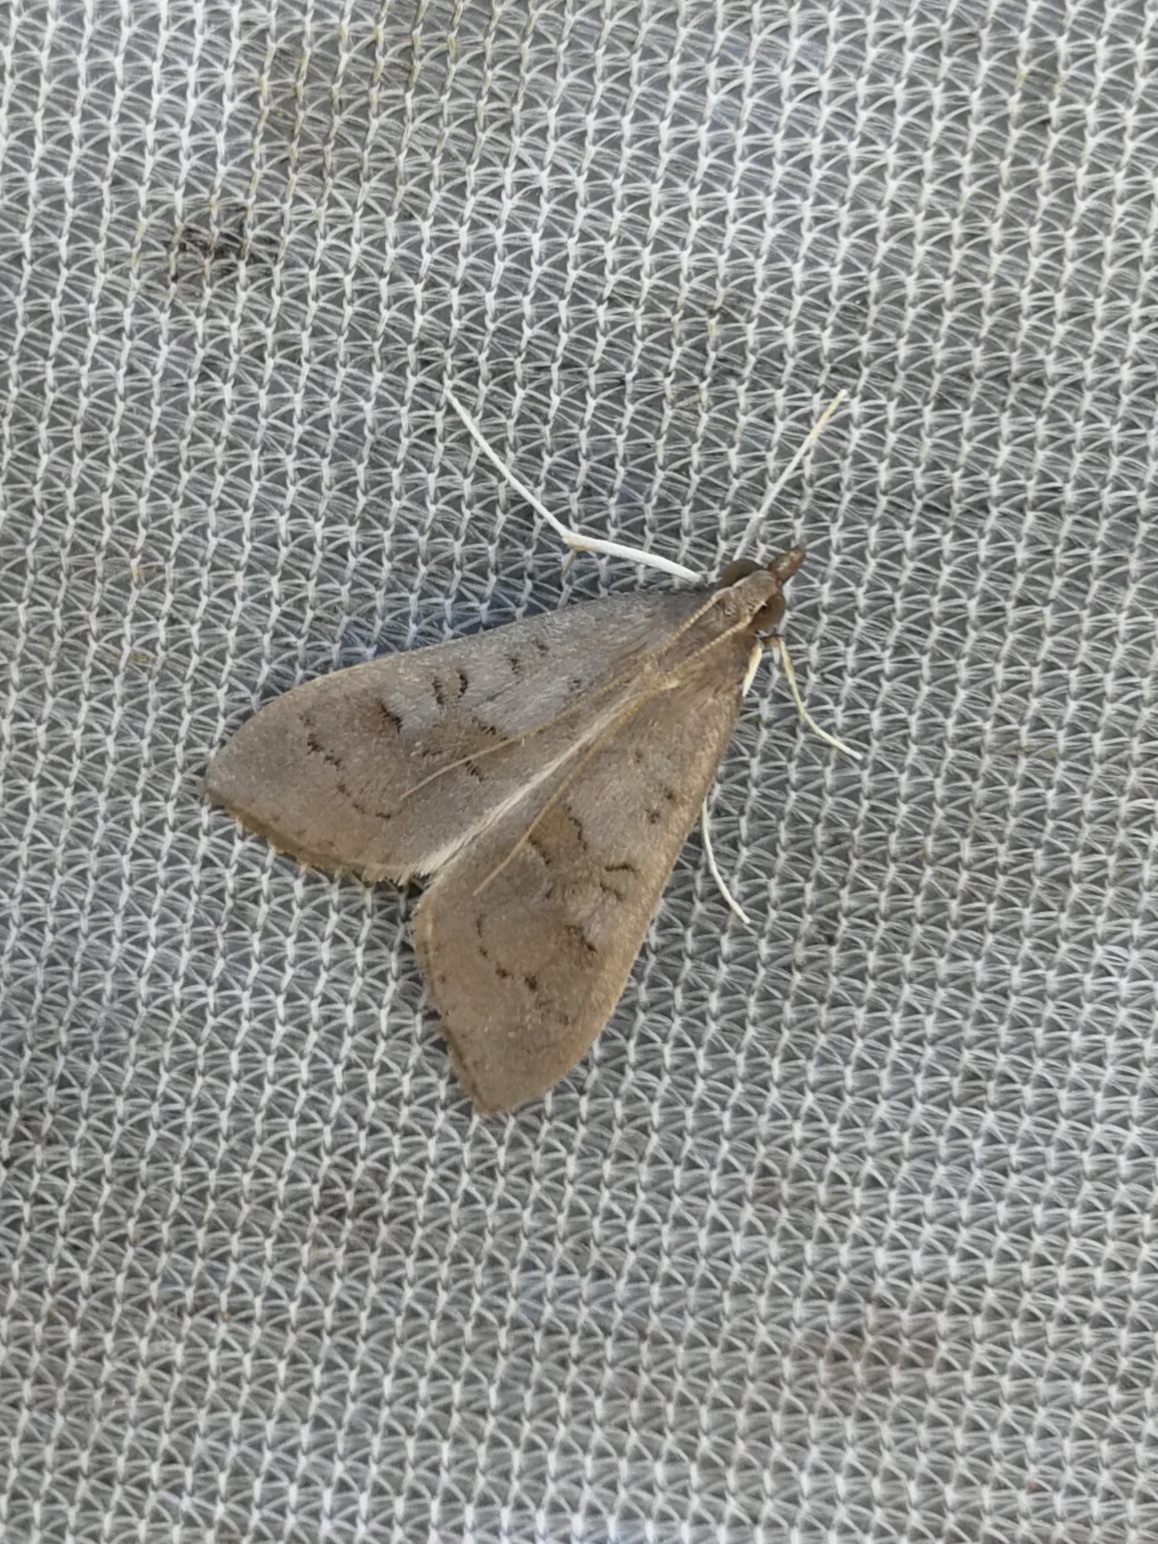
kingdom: Animalia
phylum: Arthropoda
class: Insecta
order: Lepidoptera
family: Crambidae
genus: Mecyna
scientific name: Mecyna asinalis
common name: Coastal pearl
